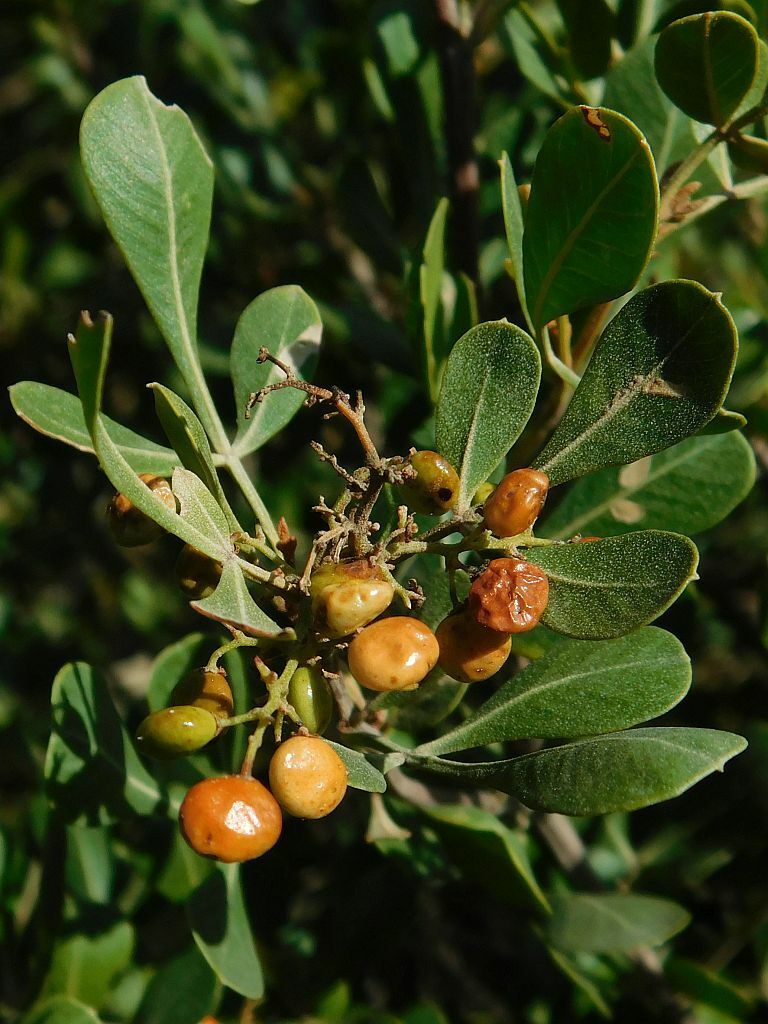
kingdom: Plantae
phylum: Tracheophyta
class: Magnoliopsida
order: Sapindales
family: Anacardiaceae
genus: Searsia
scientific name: Searsia pallens
